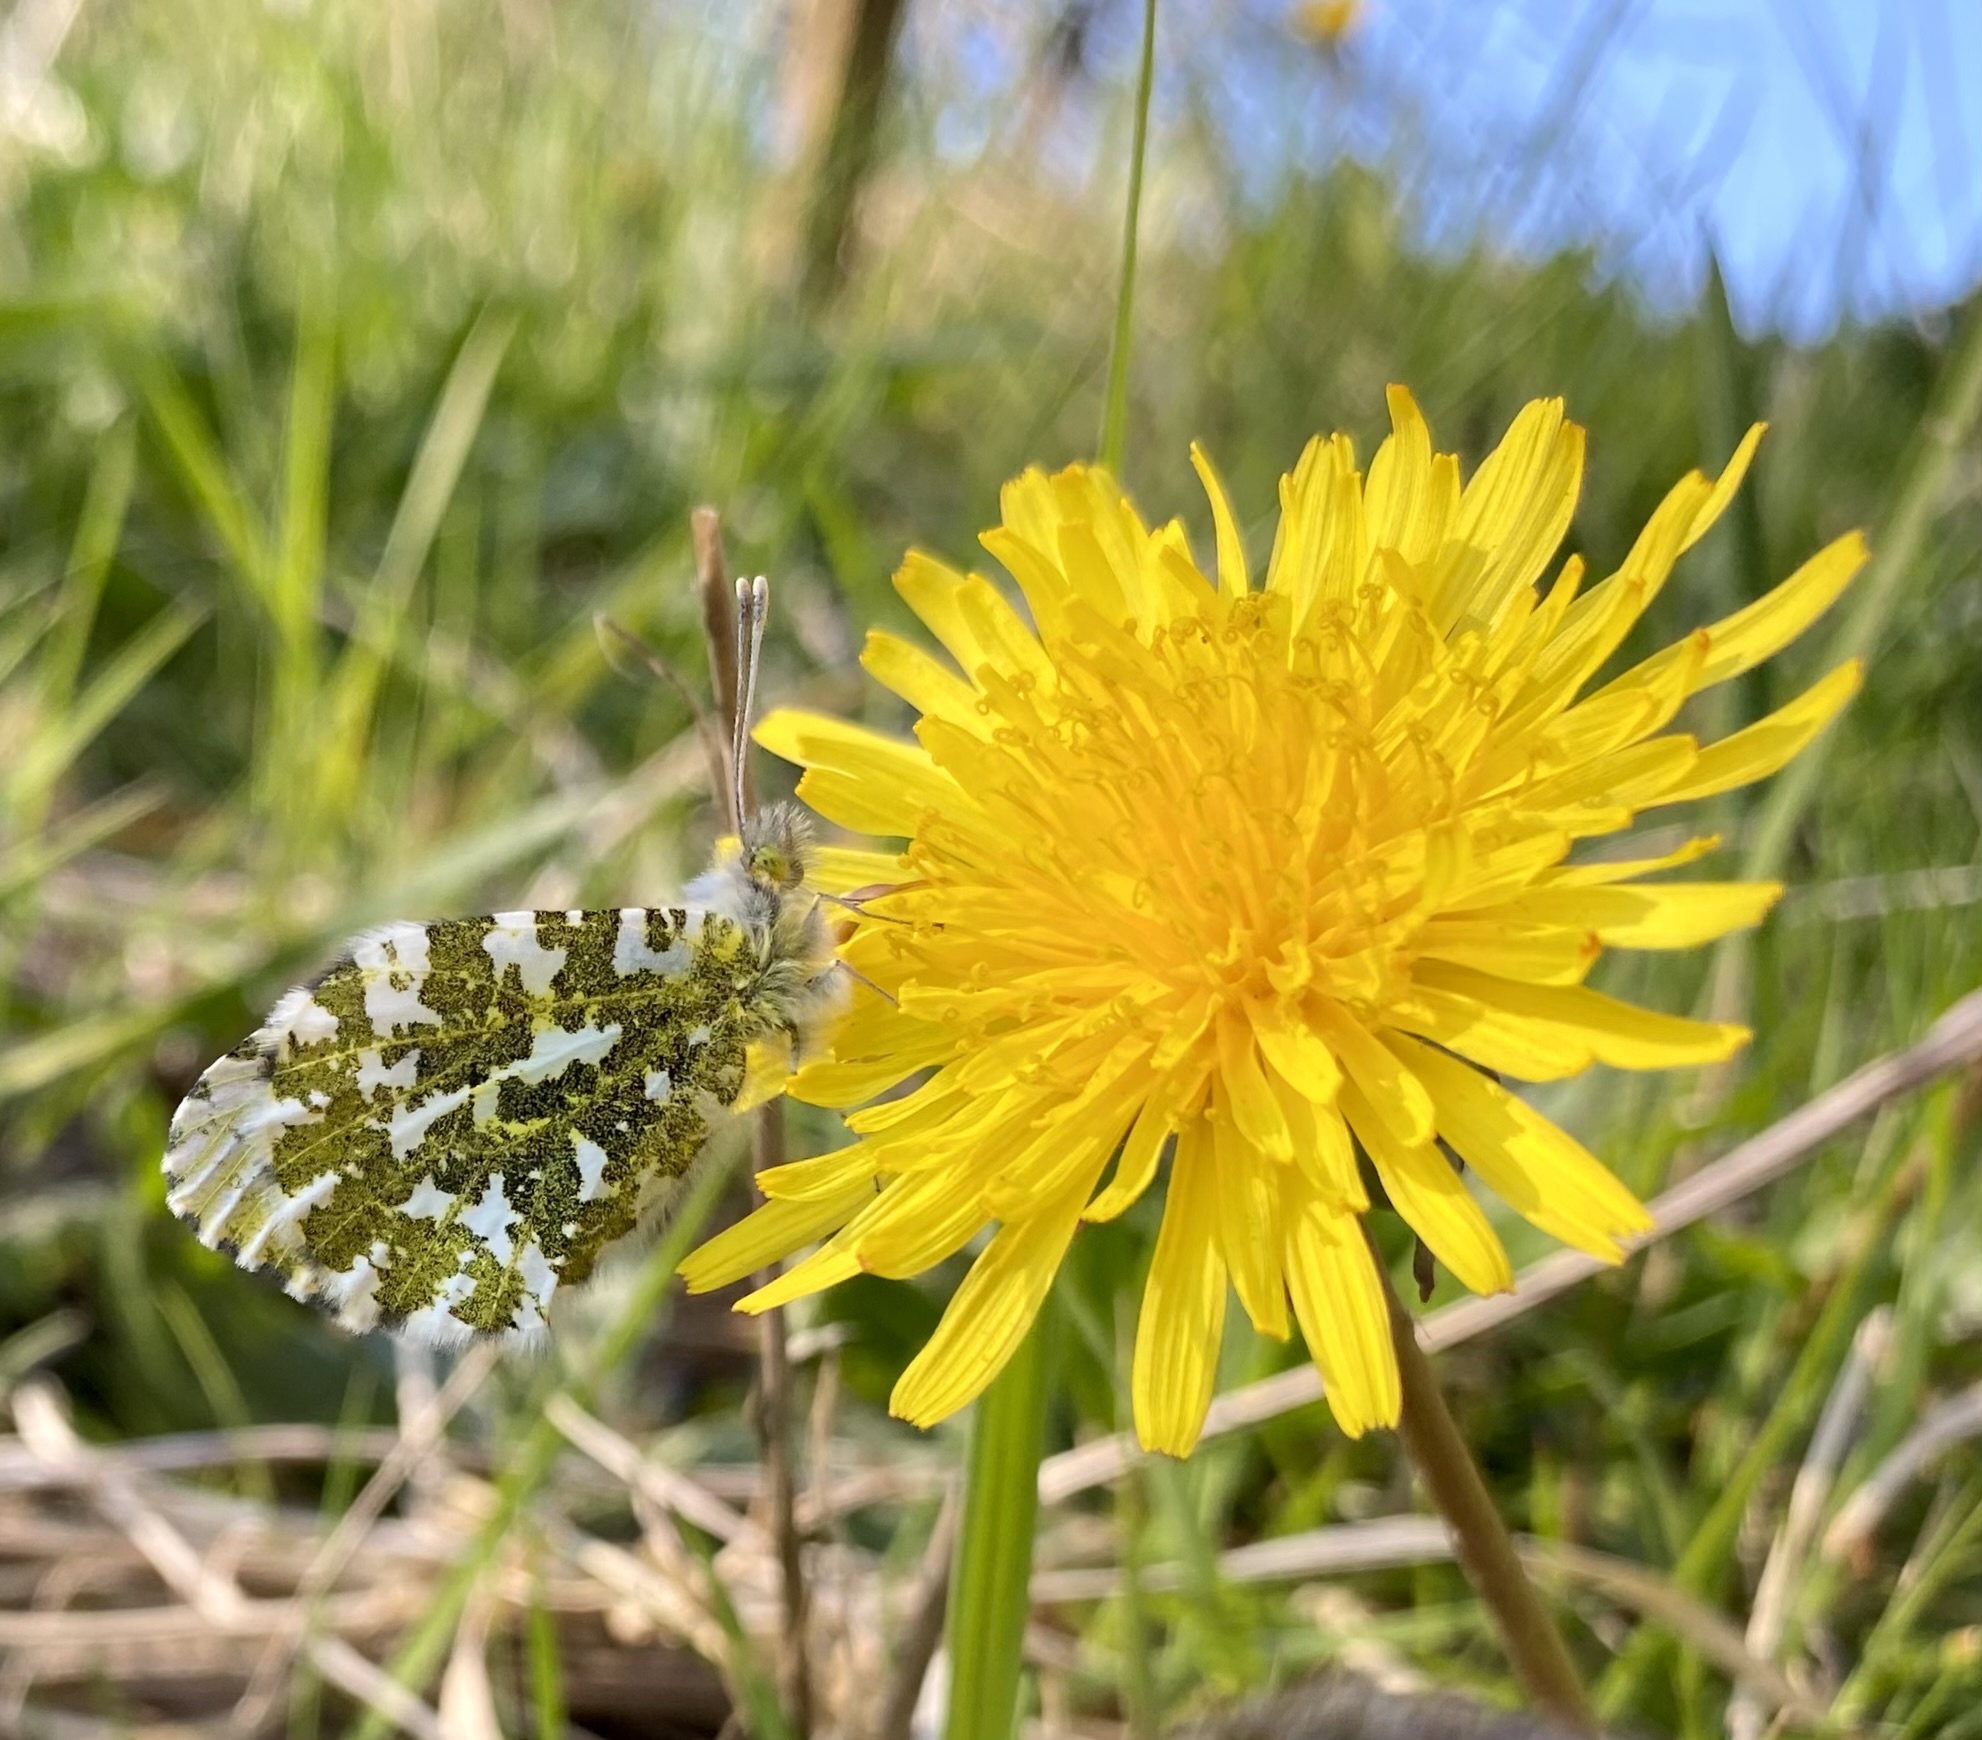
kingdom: Animalia
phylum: Arthropoda
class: Insecta
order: Lepidoptera
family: Pieridae
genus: Anthocharis
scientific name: Anthocharis cardamines
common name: Orange-tip
